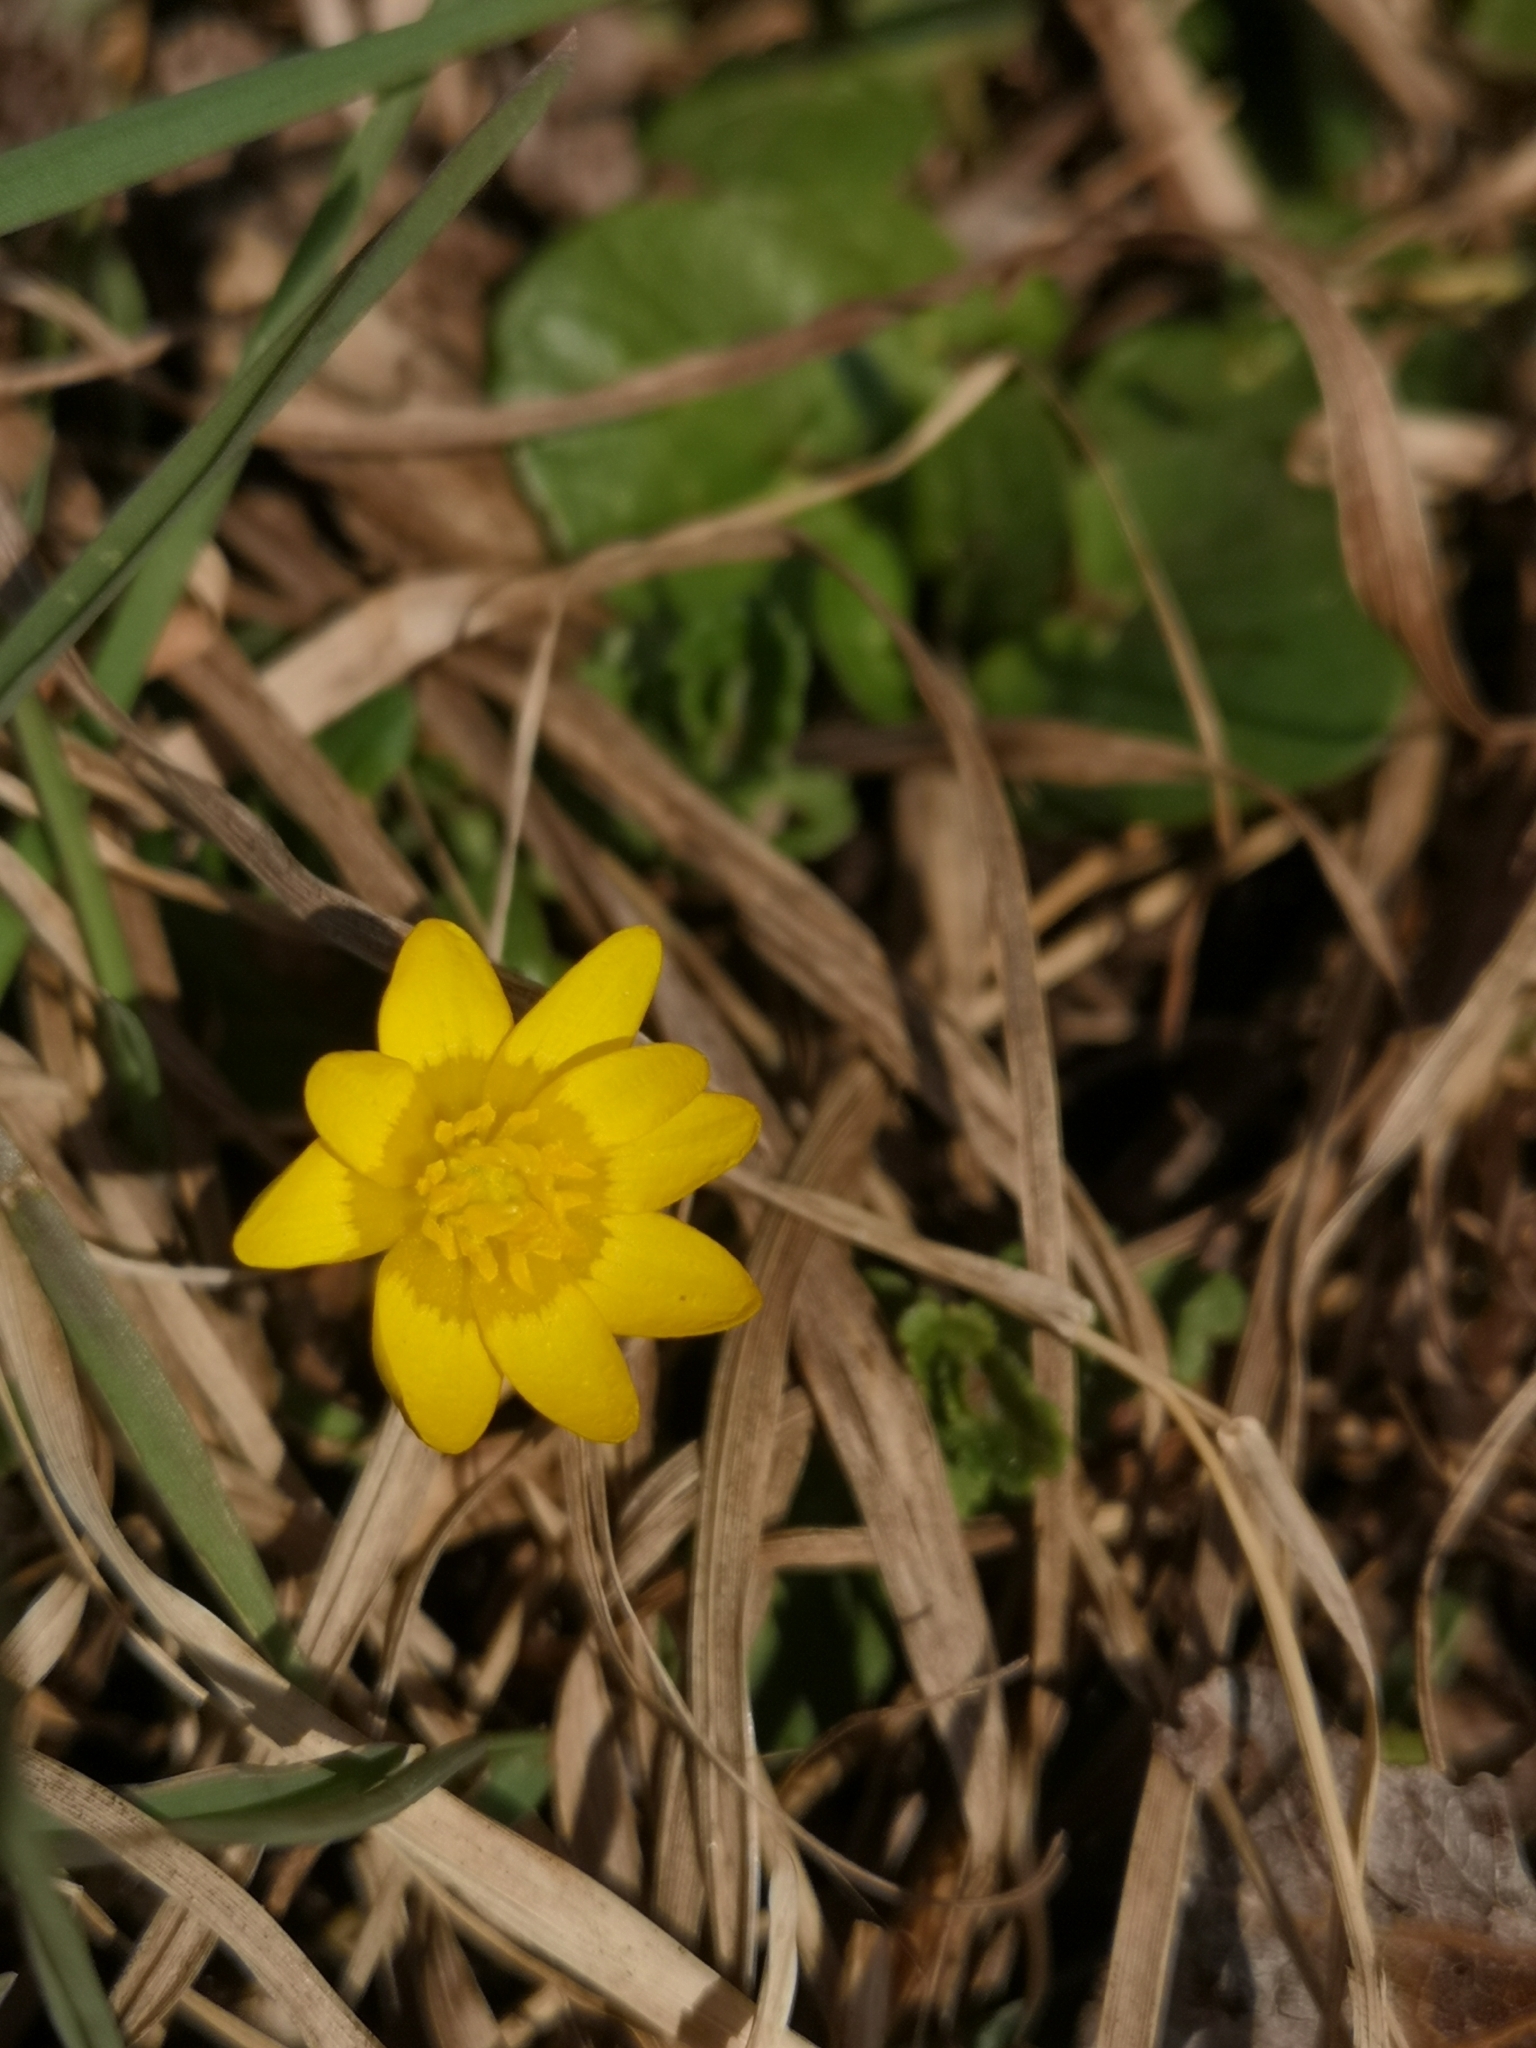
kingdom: Plantae
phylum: Tracheophyta
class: Magnoliopsida
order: Ranunculales
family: Ranunculaceae
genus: Ficaria
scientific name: Ficaria verna
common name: Lesser celandine
